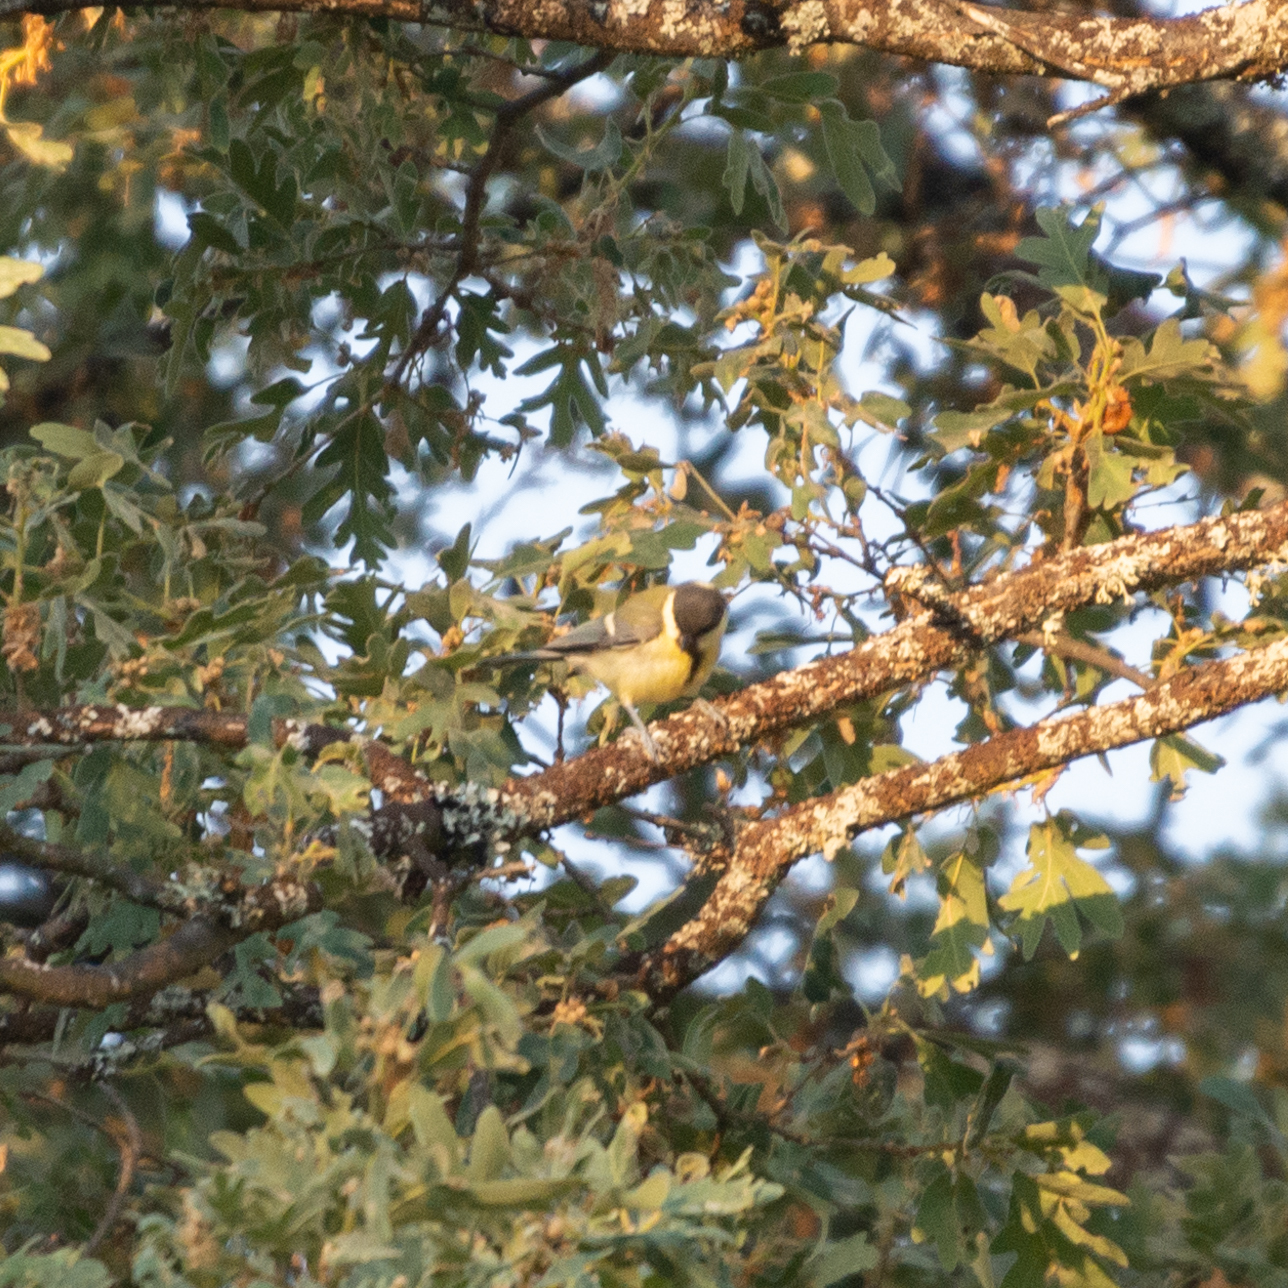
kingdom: Animalia
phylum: Chordata
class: Aves
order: Passeriformes
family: Paridae
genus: Parus
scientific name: Parus major
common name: Great tit
